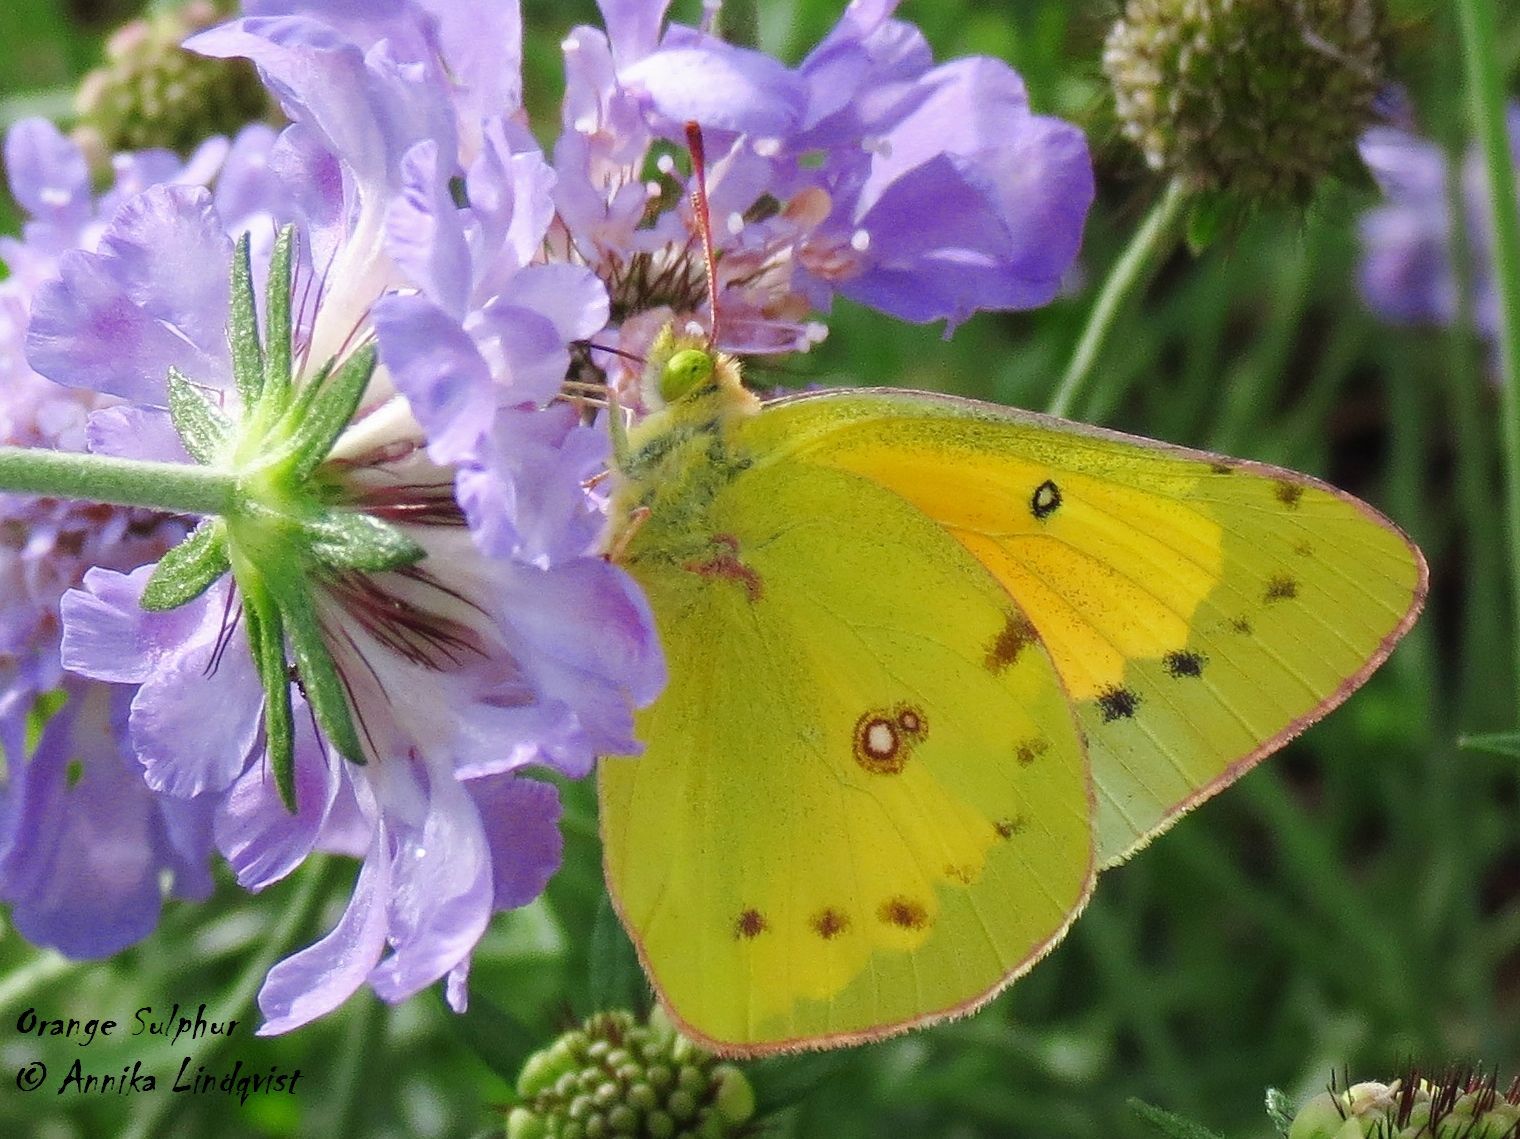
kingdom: Animalia
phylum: Arthropoda
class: Insecta
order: Lepidoptera
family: Pieridae
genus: Colias
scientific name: Colias eurytheme
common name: Alfalfa butterfly
